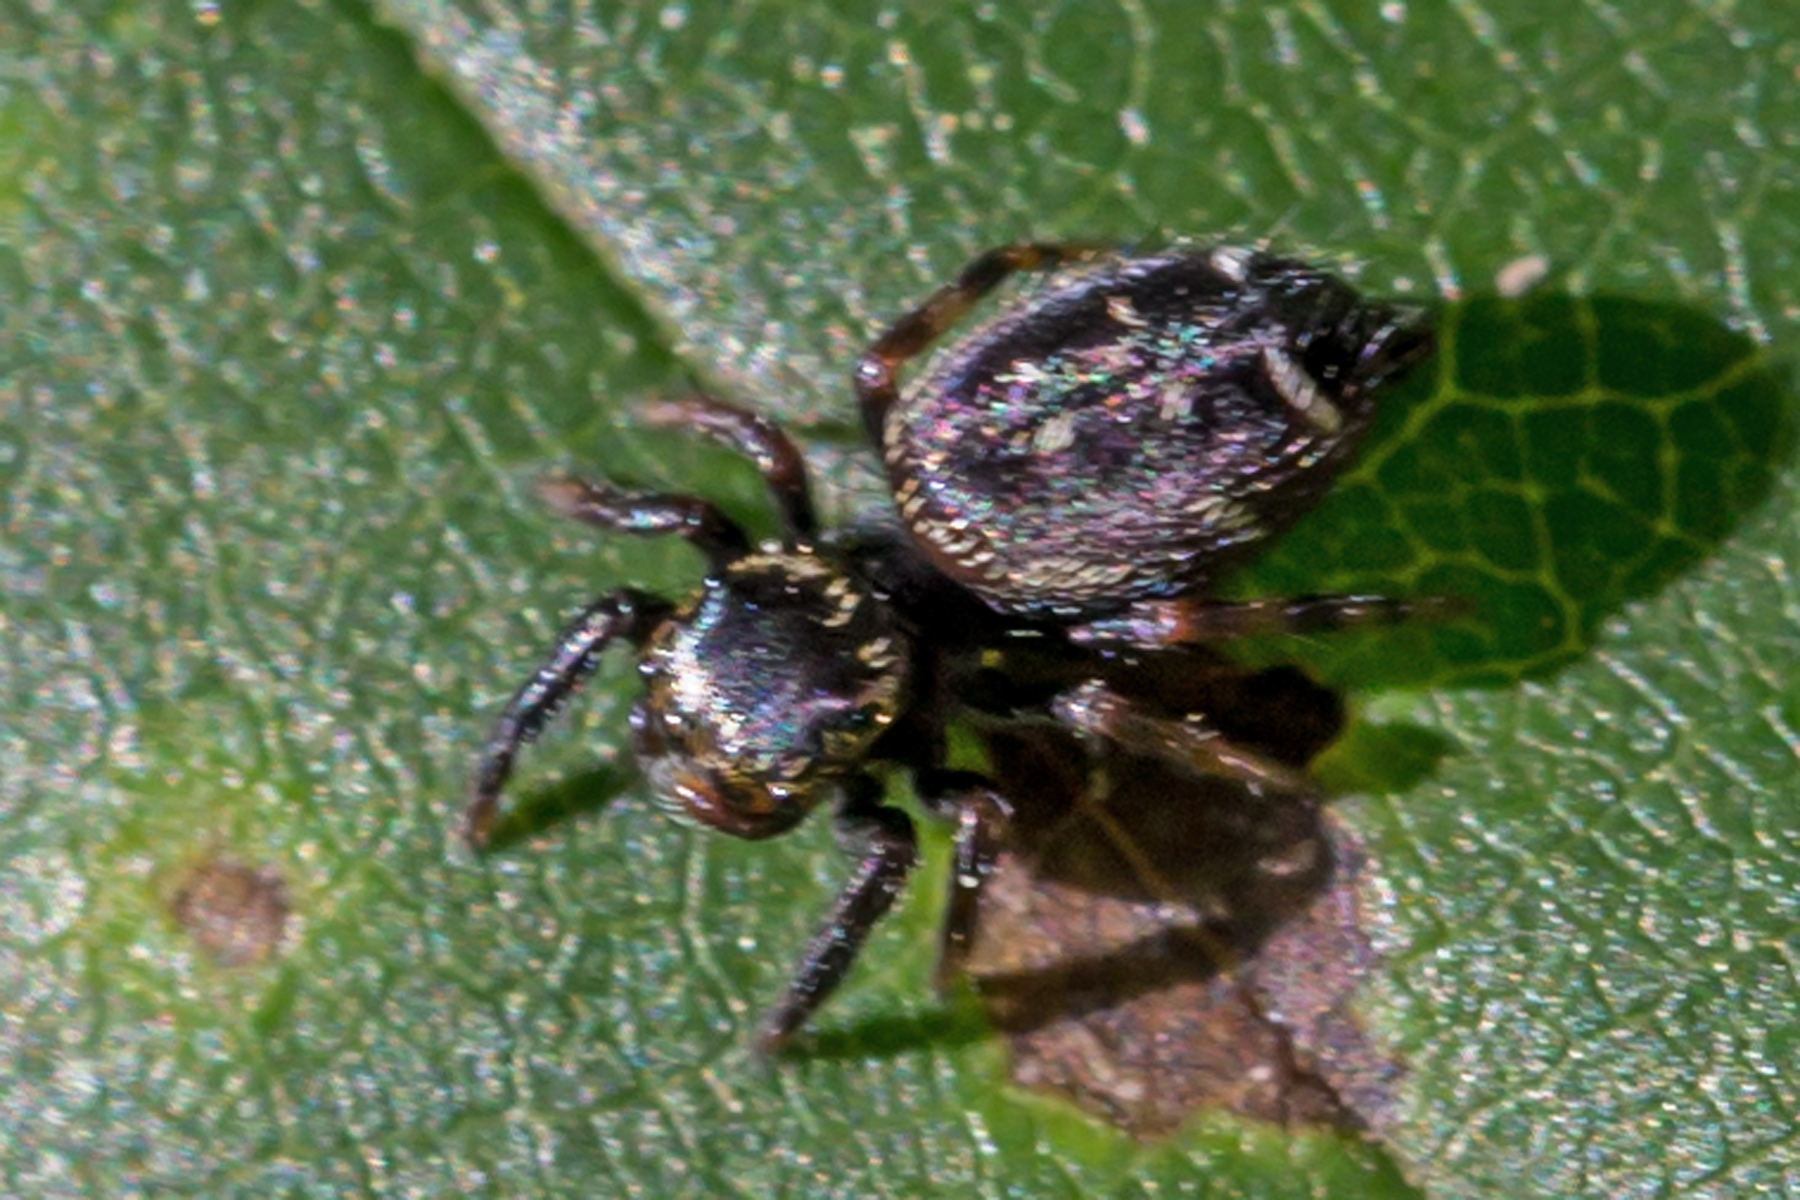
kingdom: Animalia
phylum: Arthropoda
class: Arachnida
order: Araneae
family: Salticidae
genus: Paraphidippus
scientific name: Paraphidippus aurantius
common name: Jumping spiders
